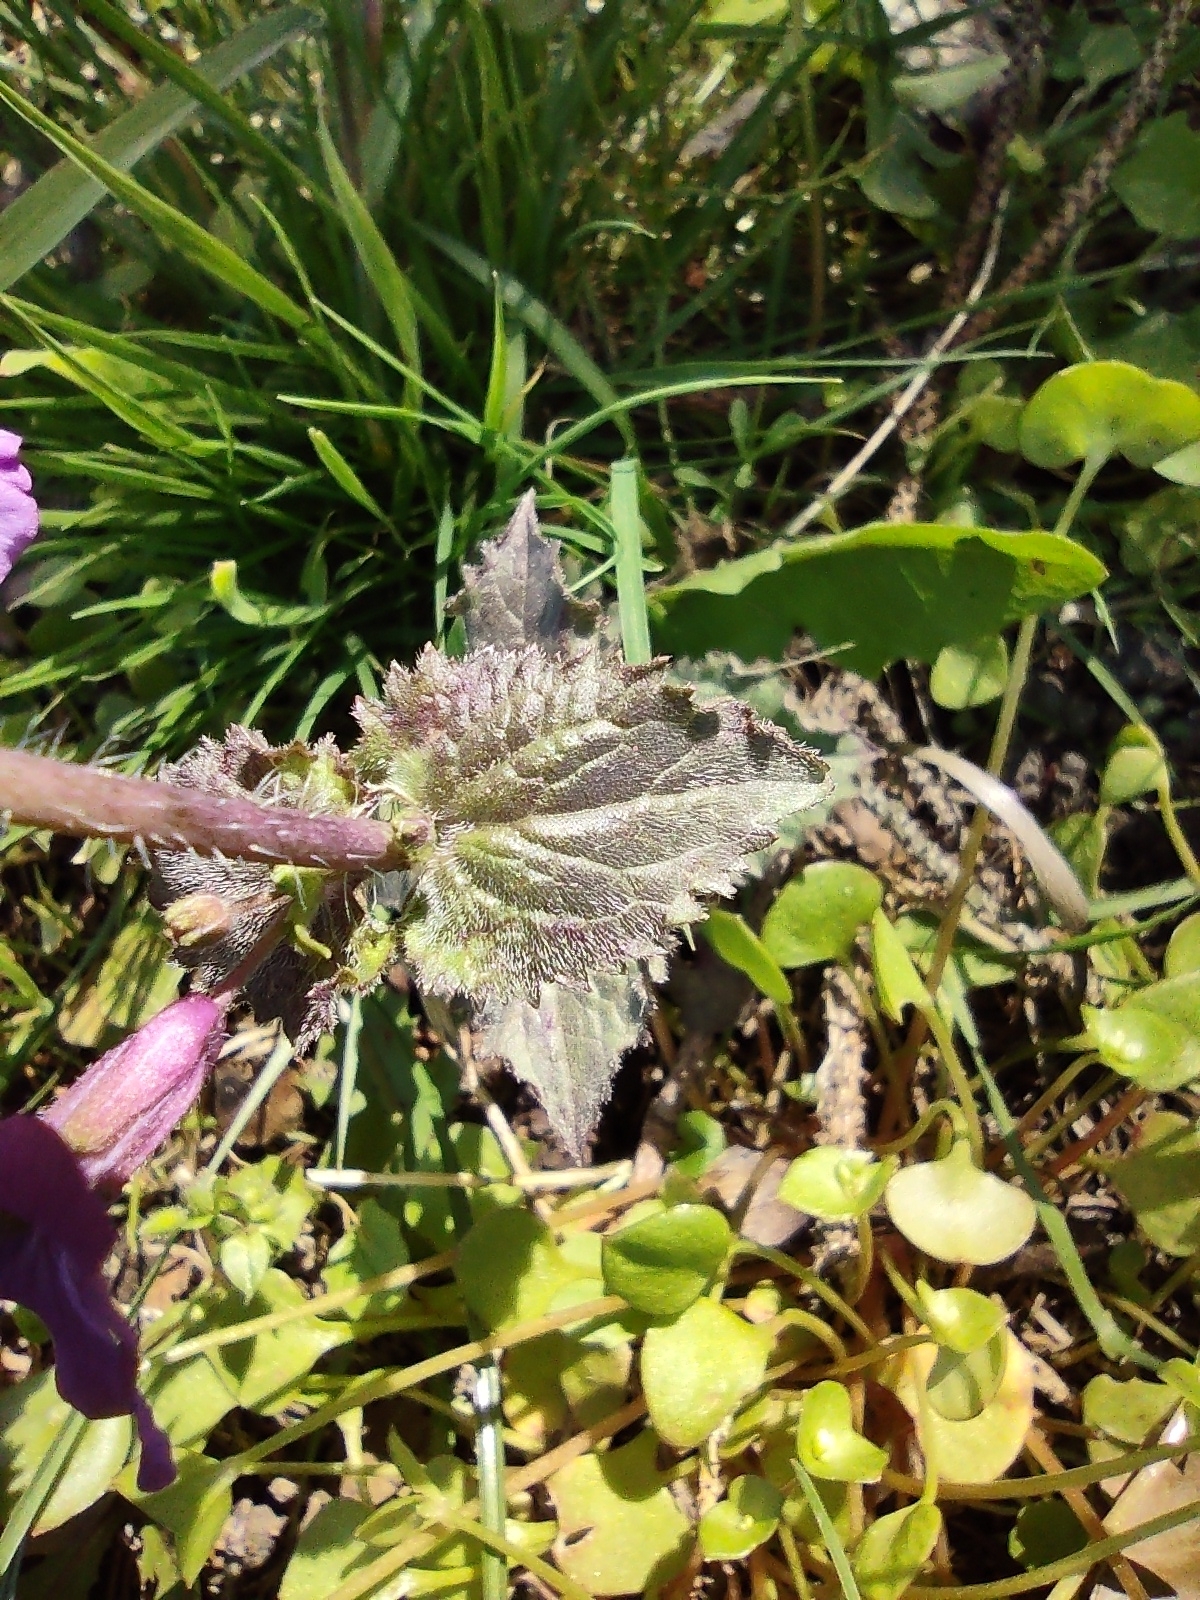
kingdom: Plantae
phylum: Tracheophyta
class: Magnoliopsida
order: Brassicales
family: Brassicaceae
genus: Lunaria
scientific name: Lunaria annua
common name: Honesty
